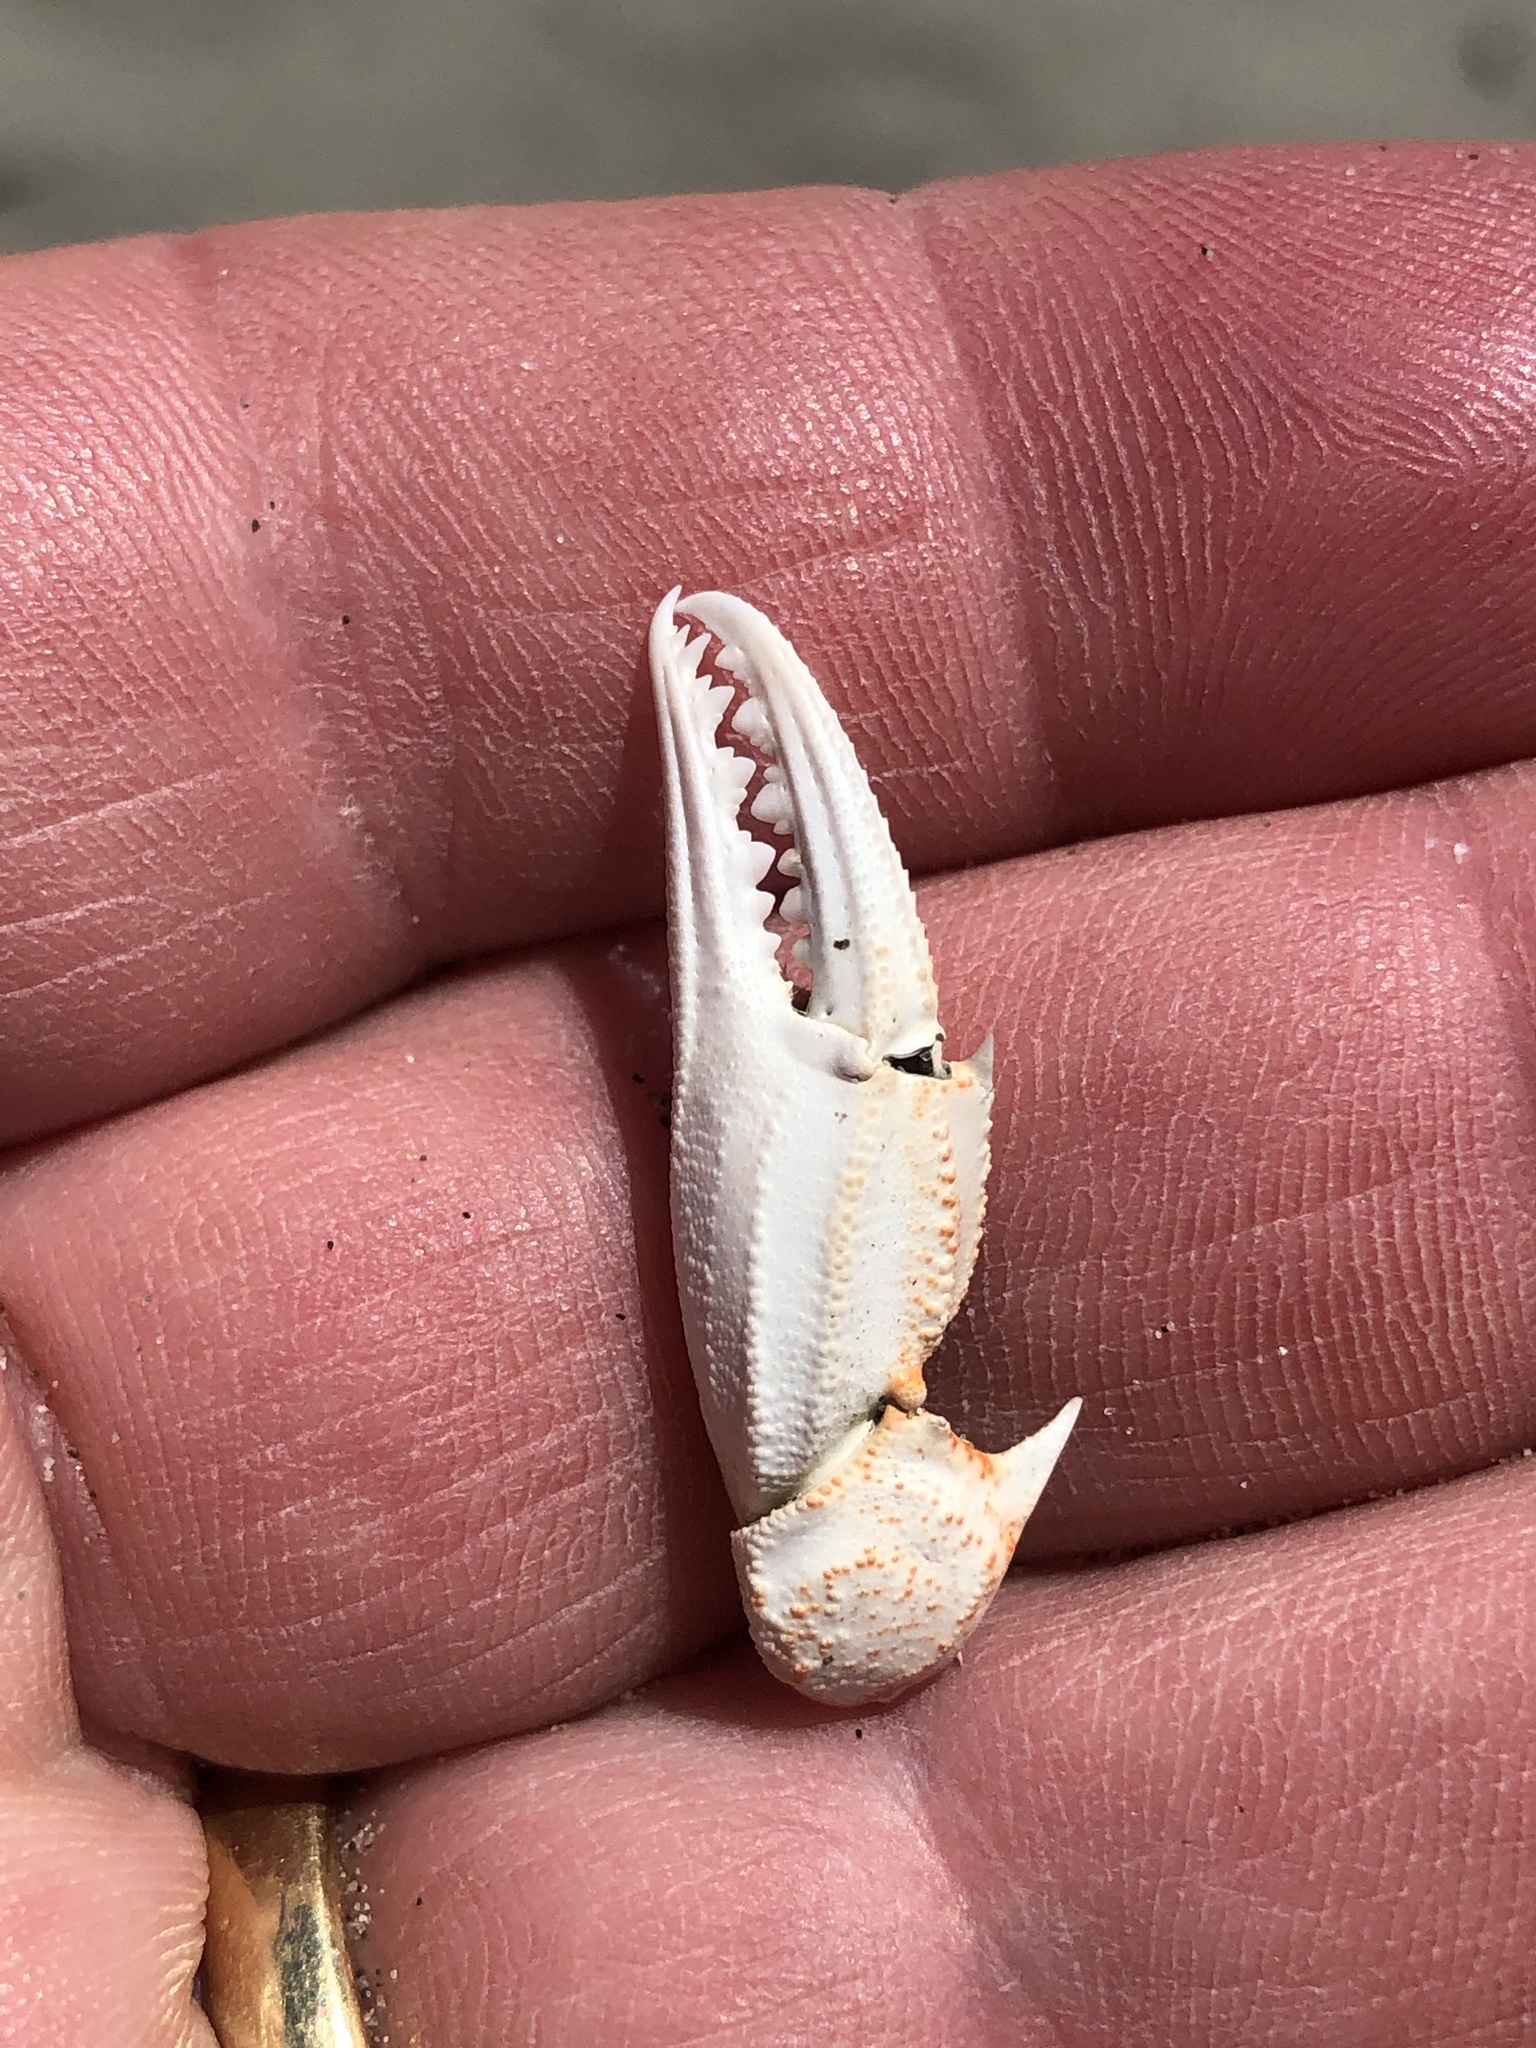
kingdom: Animalia
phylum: Arthropoda
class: Malacostraca
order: Decapoda
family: Ovalipidae
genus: Ovalipes
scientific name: Ovalipes catharus
